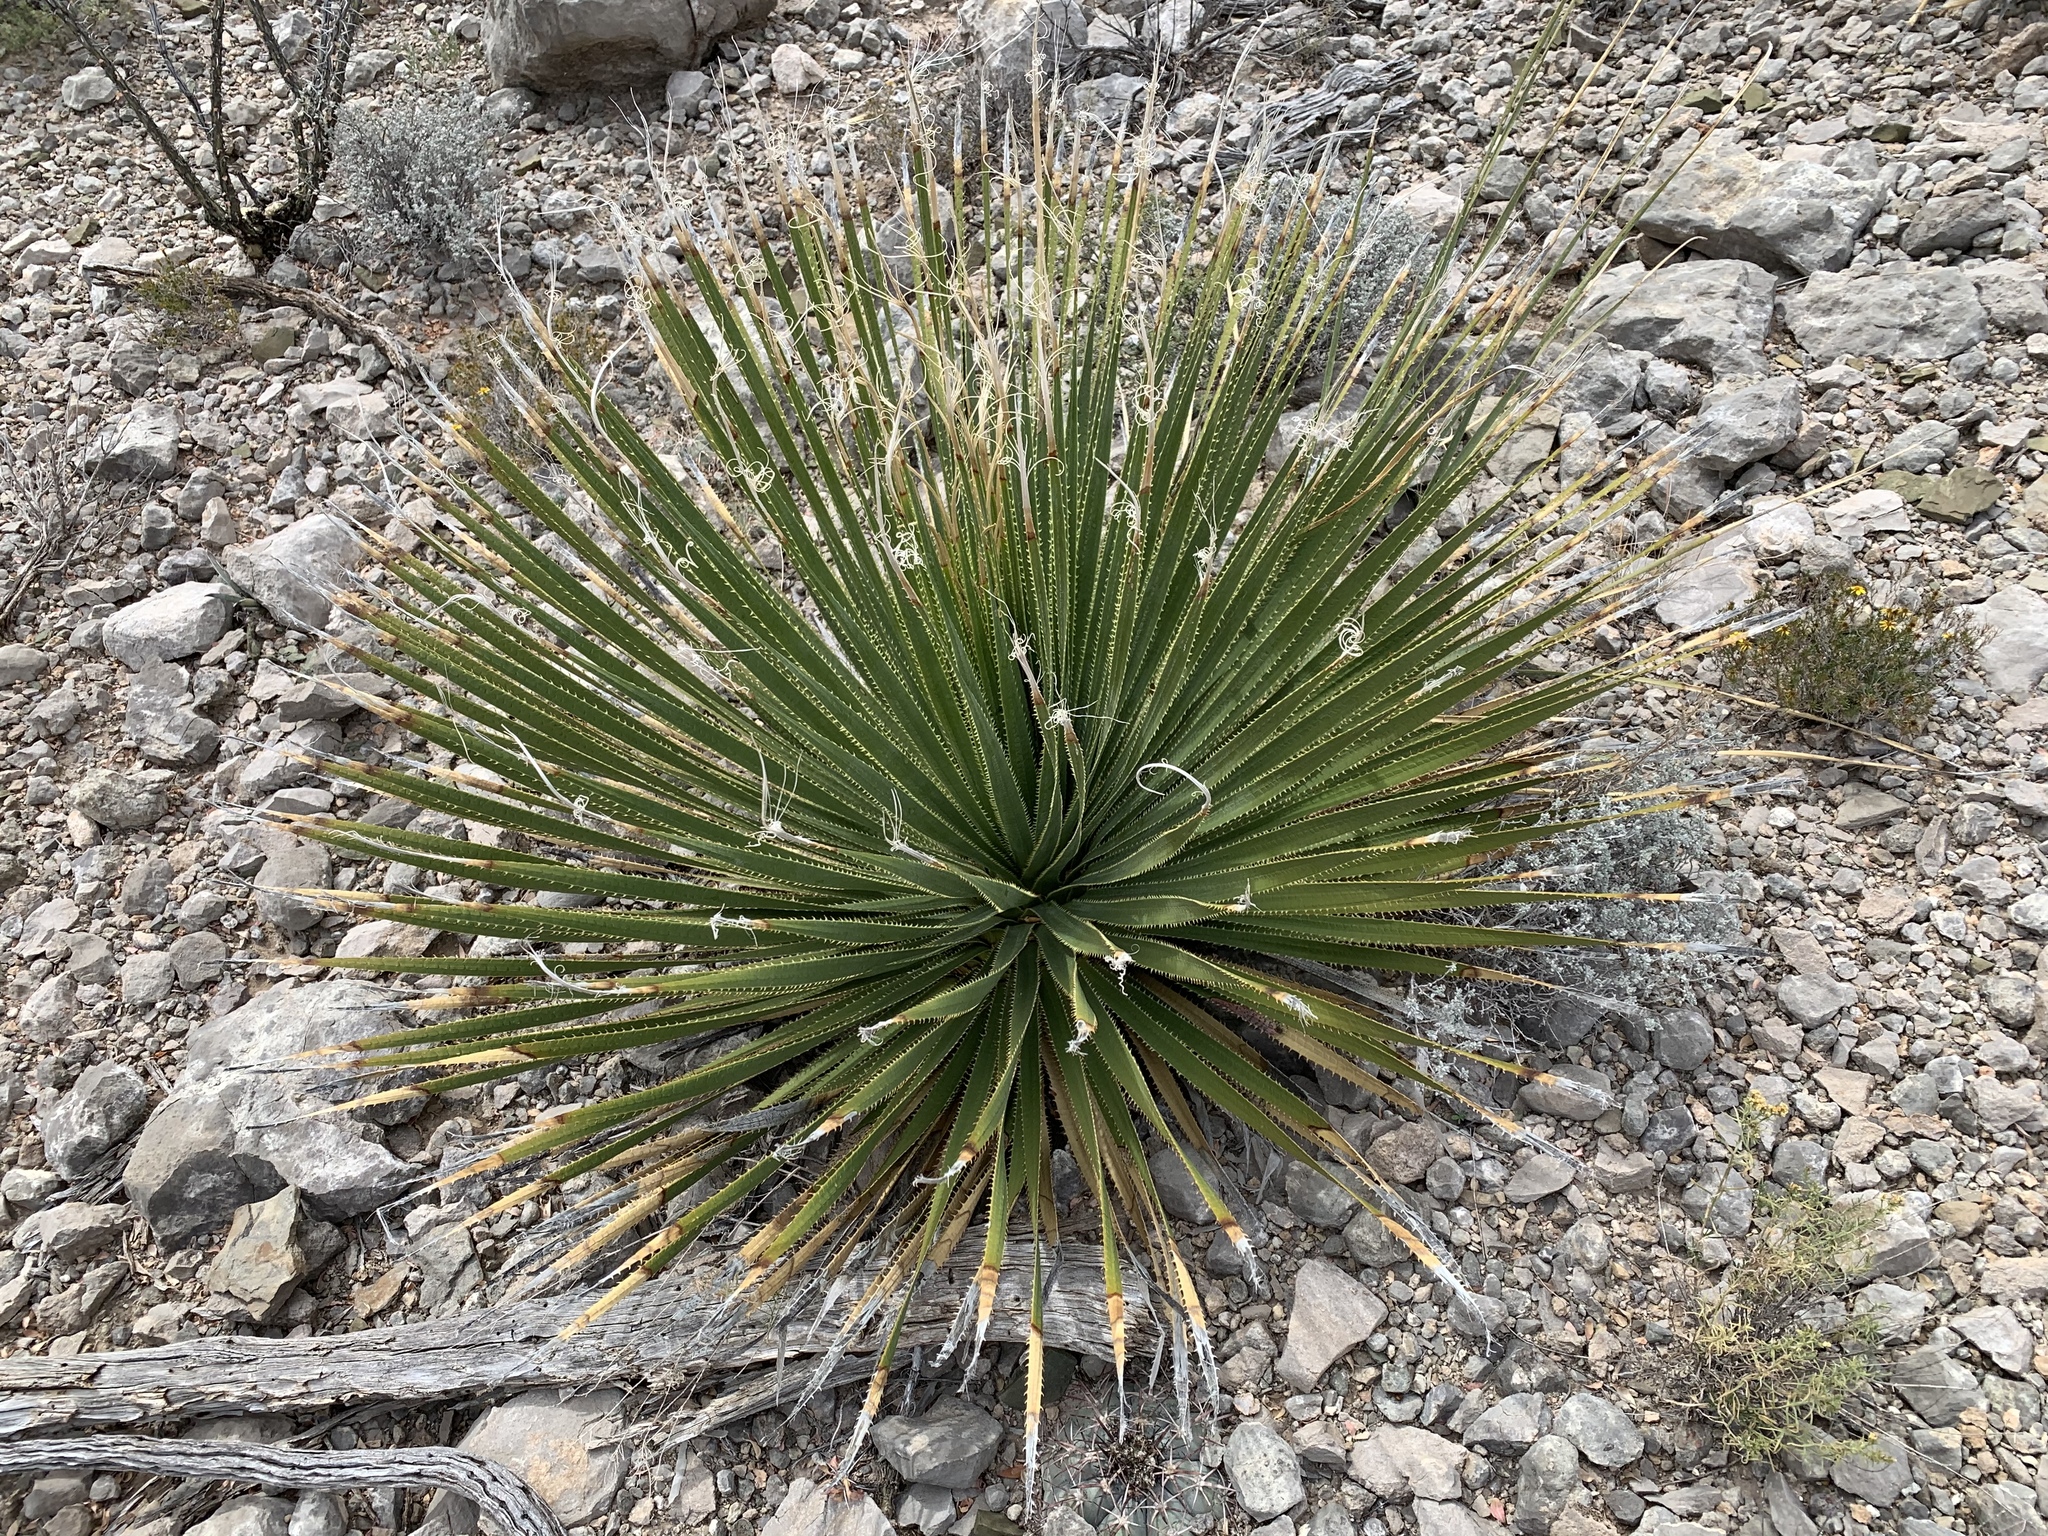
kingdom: Plantae
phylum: Tracheophyta
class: Liliopsida
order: Asparagales
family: Asparagaceae
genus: Dasylirion
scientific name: Dasylirion wheeleri
